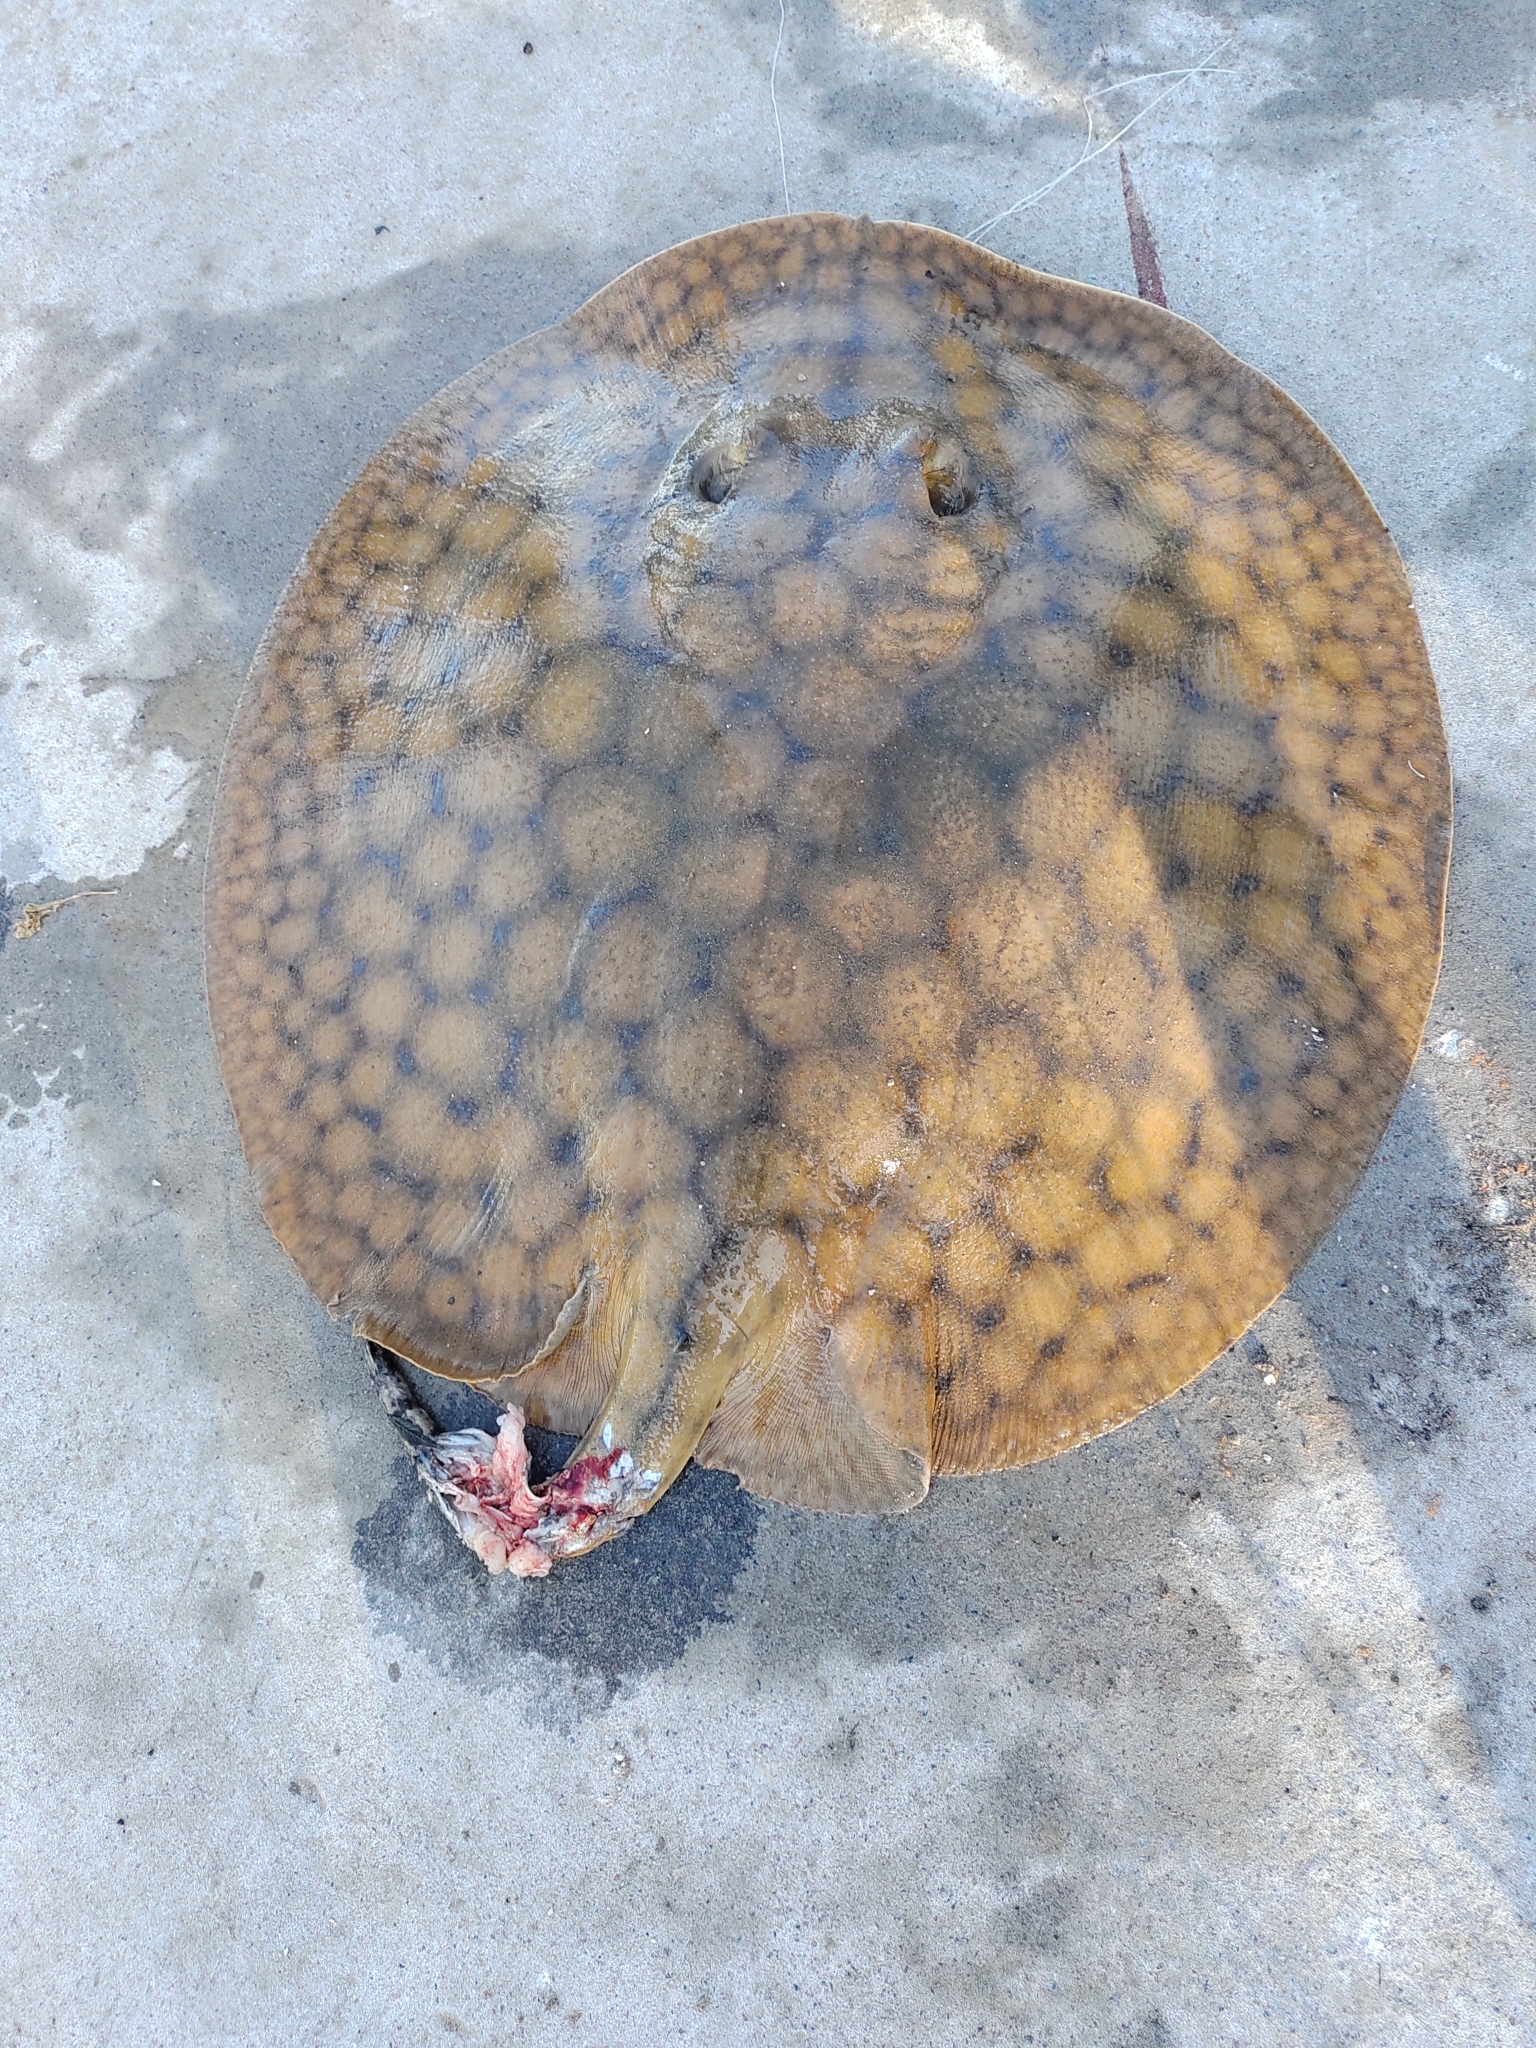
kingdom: Animalia
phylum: Chordata
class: Elasmobranchii
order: Myliobatiformes
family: Potamotrygonidae
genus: Potamotrygon
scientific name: Potamotrygon brachyura
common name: Short-tailed river stingray
